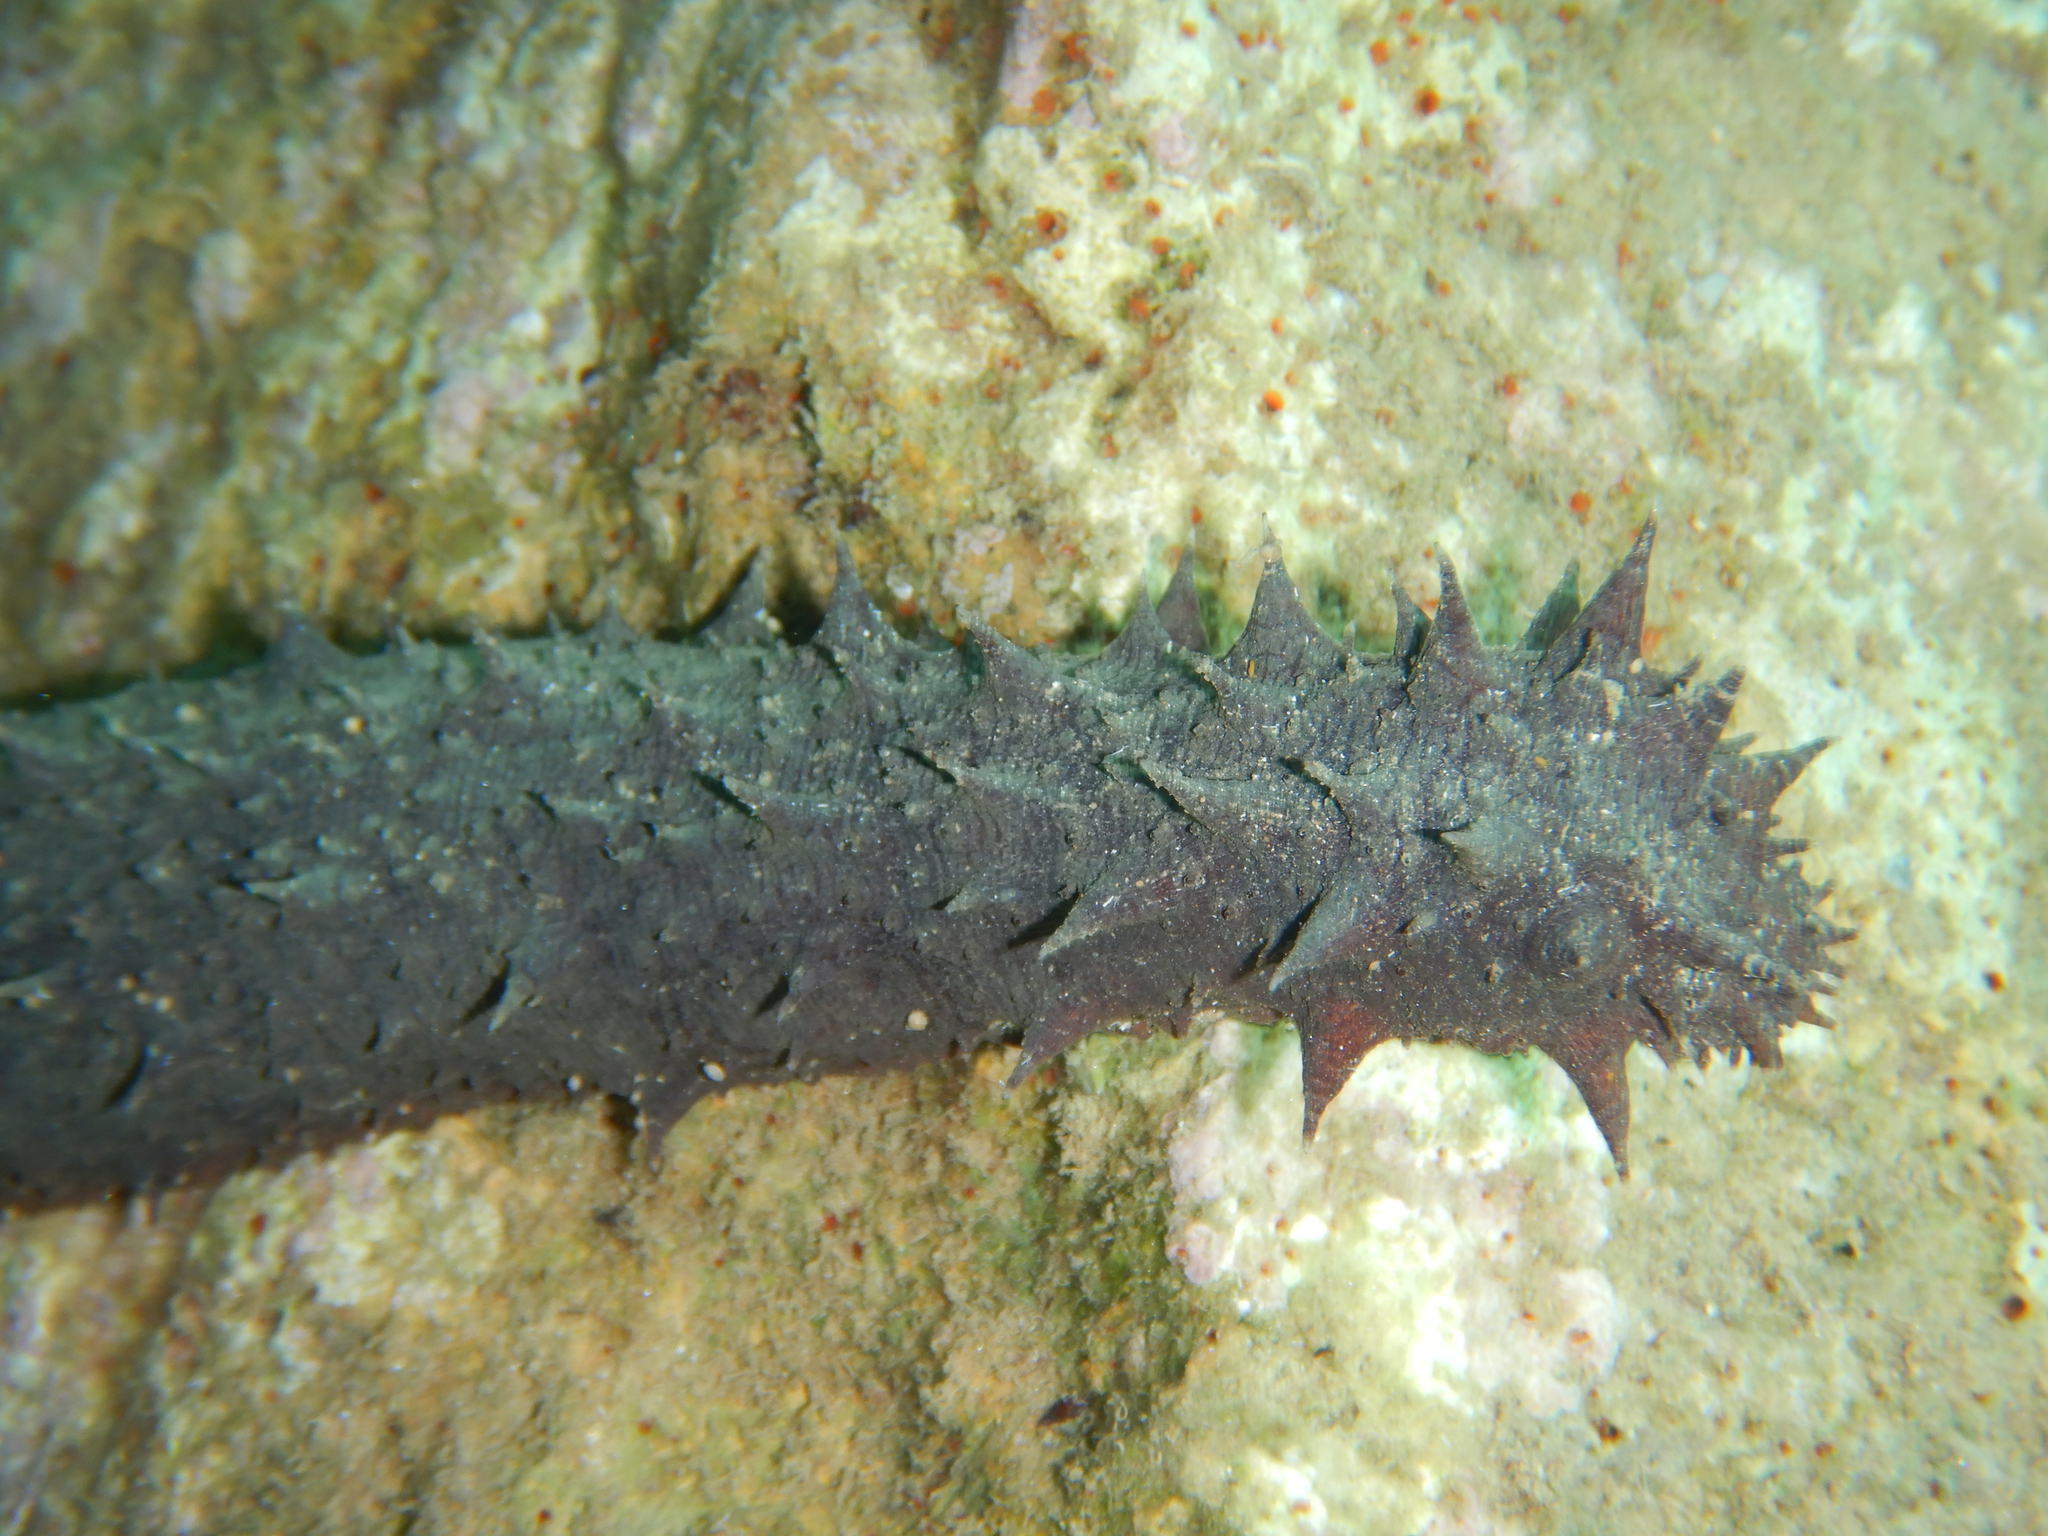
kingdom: Animalia
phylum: Echinodermata
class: Holothuroidea
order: Holothuriida
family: Holothuriidae
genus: Holothuria
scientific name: Holothuria tubulosa
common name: Cotton-spinner
